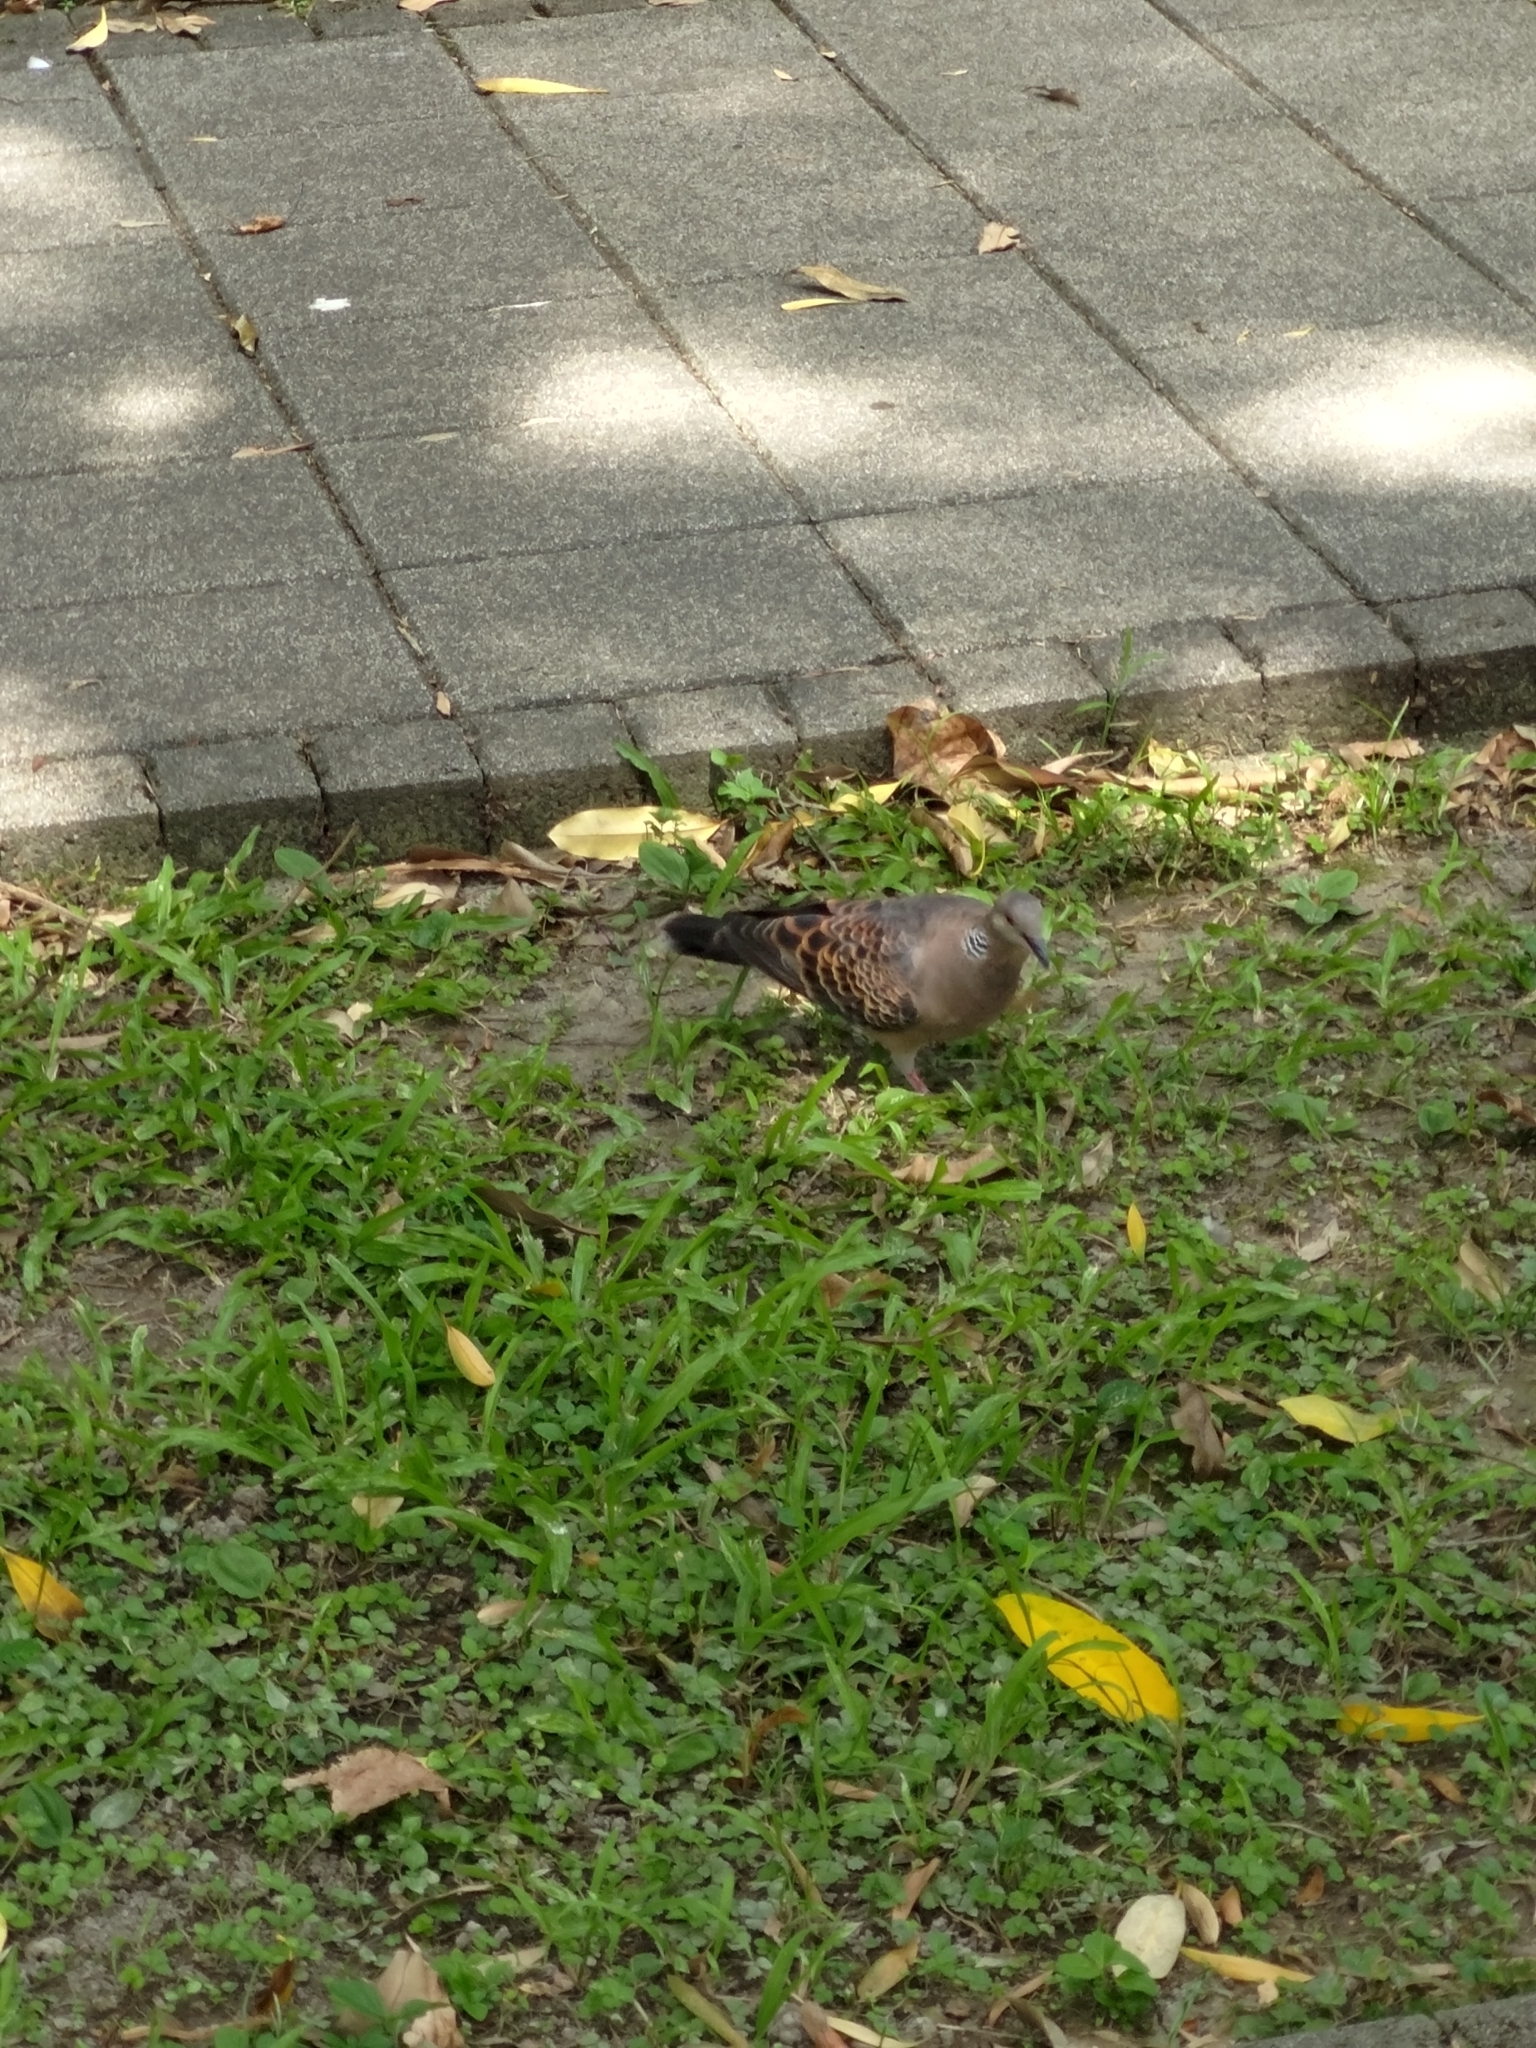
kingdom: Animalia
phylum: Chordata
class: Aves
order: Columbiformes
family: Columbidae
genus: Streptopelia
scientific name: Streptopelia orientalis
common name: Oriental turtle dove
